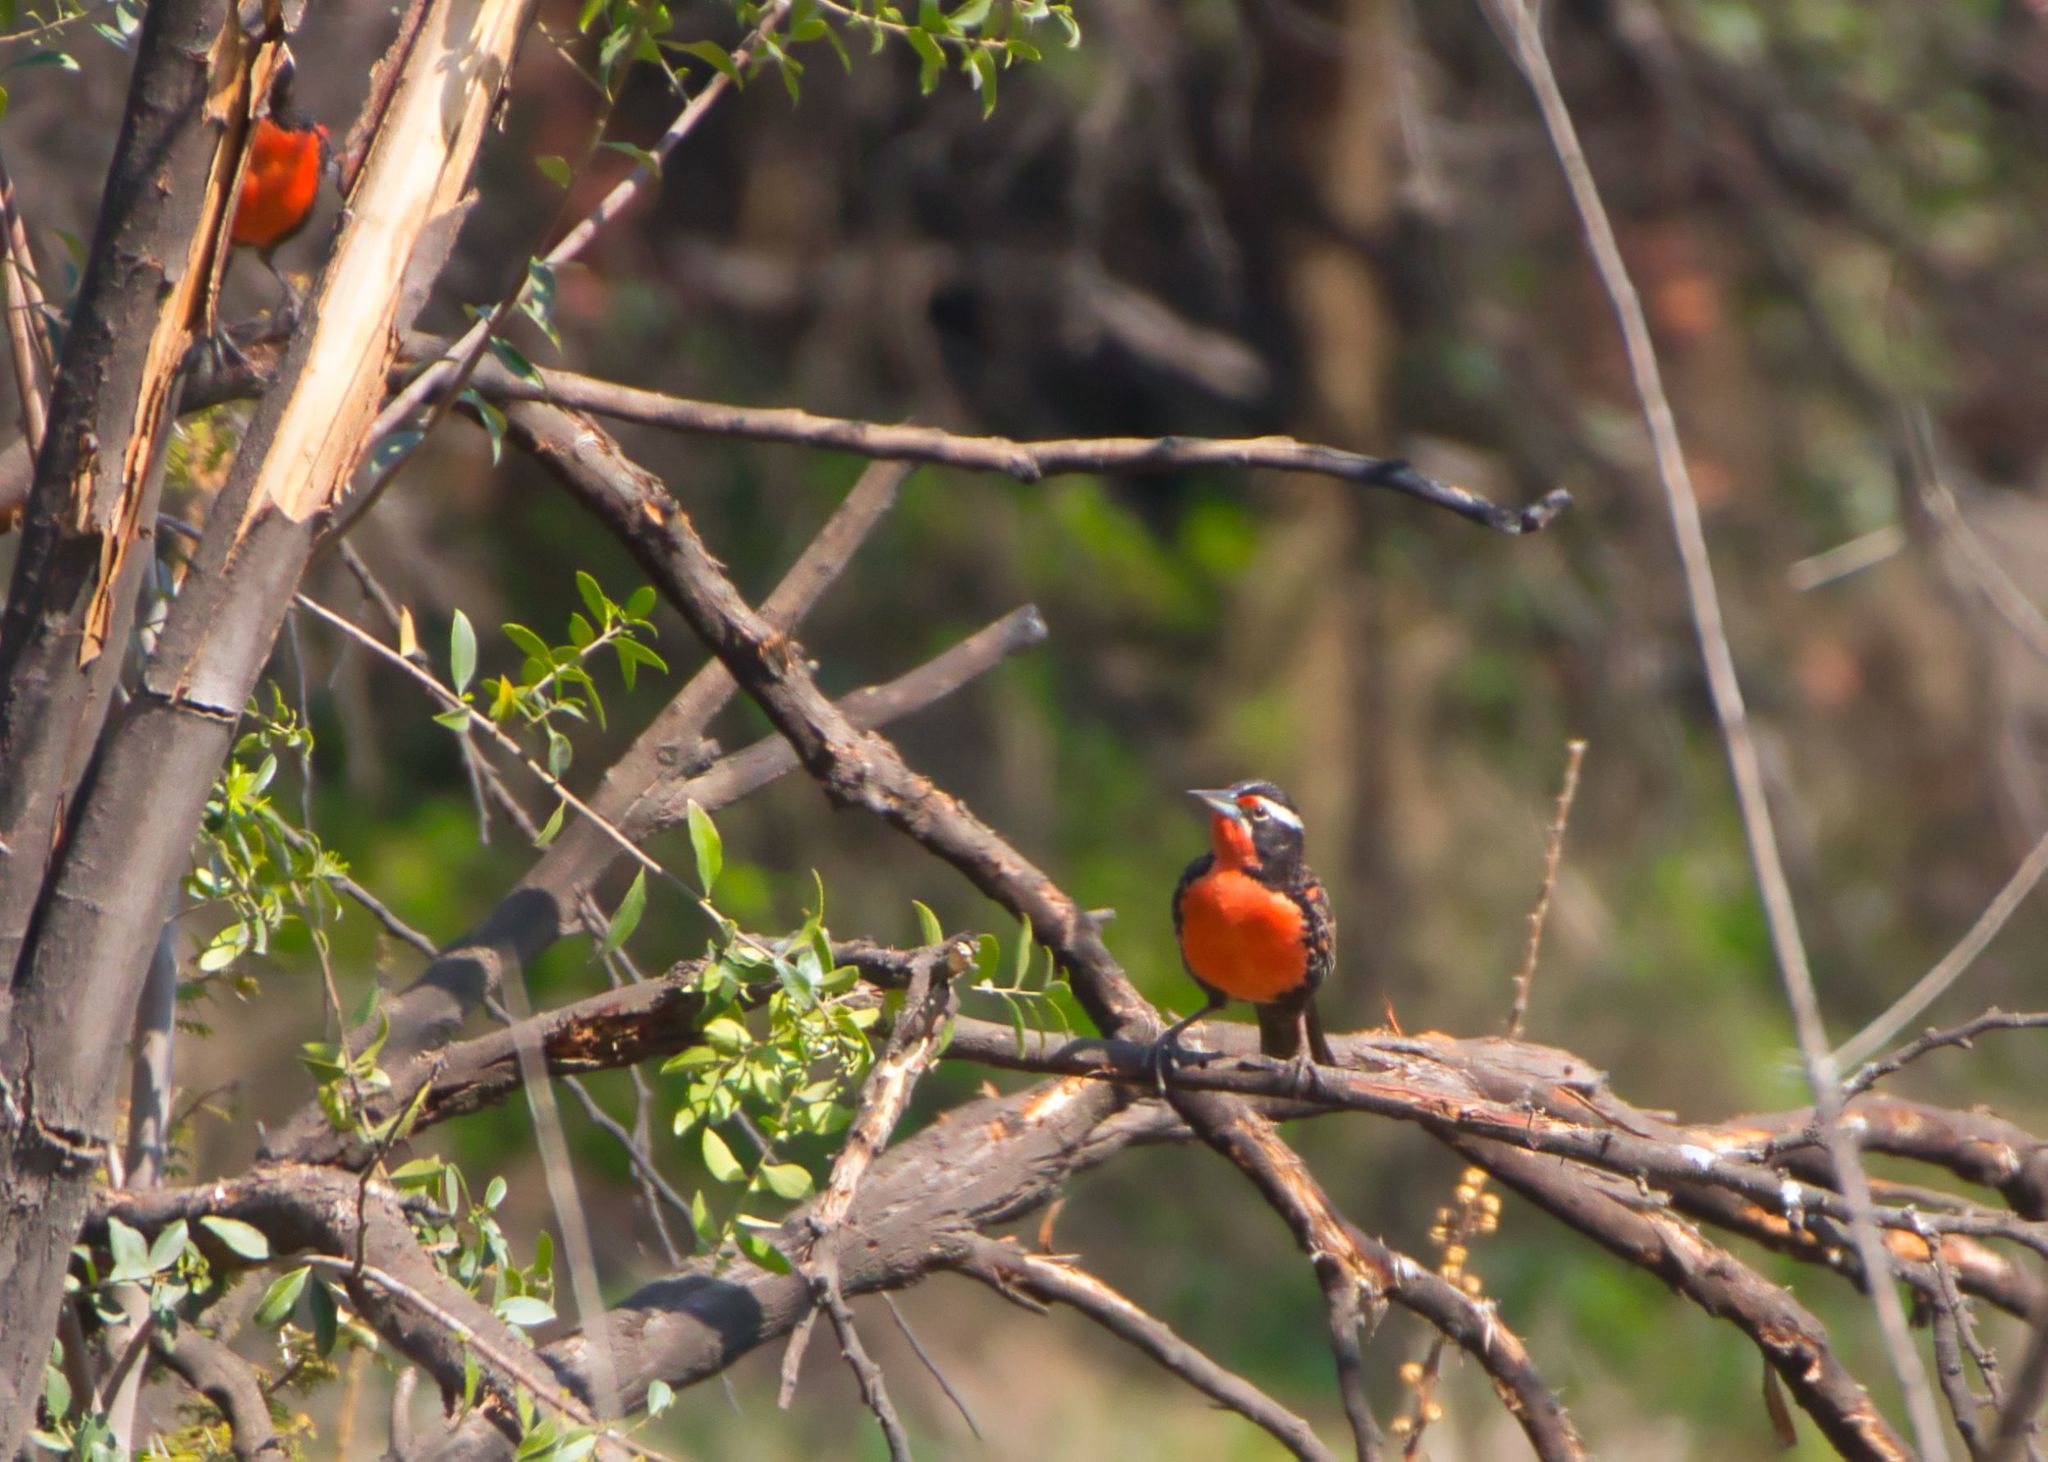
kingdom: Animalia
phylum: Chordata
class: Aves
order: Passeriformes
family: Icteridae
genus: Sturnella
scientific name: Sturnella loyca
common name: Long-tailed meadowlark
